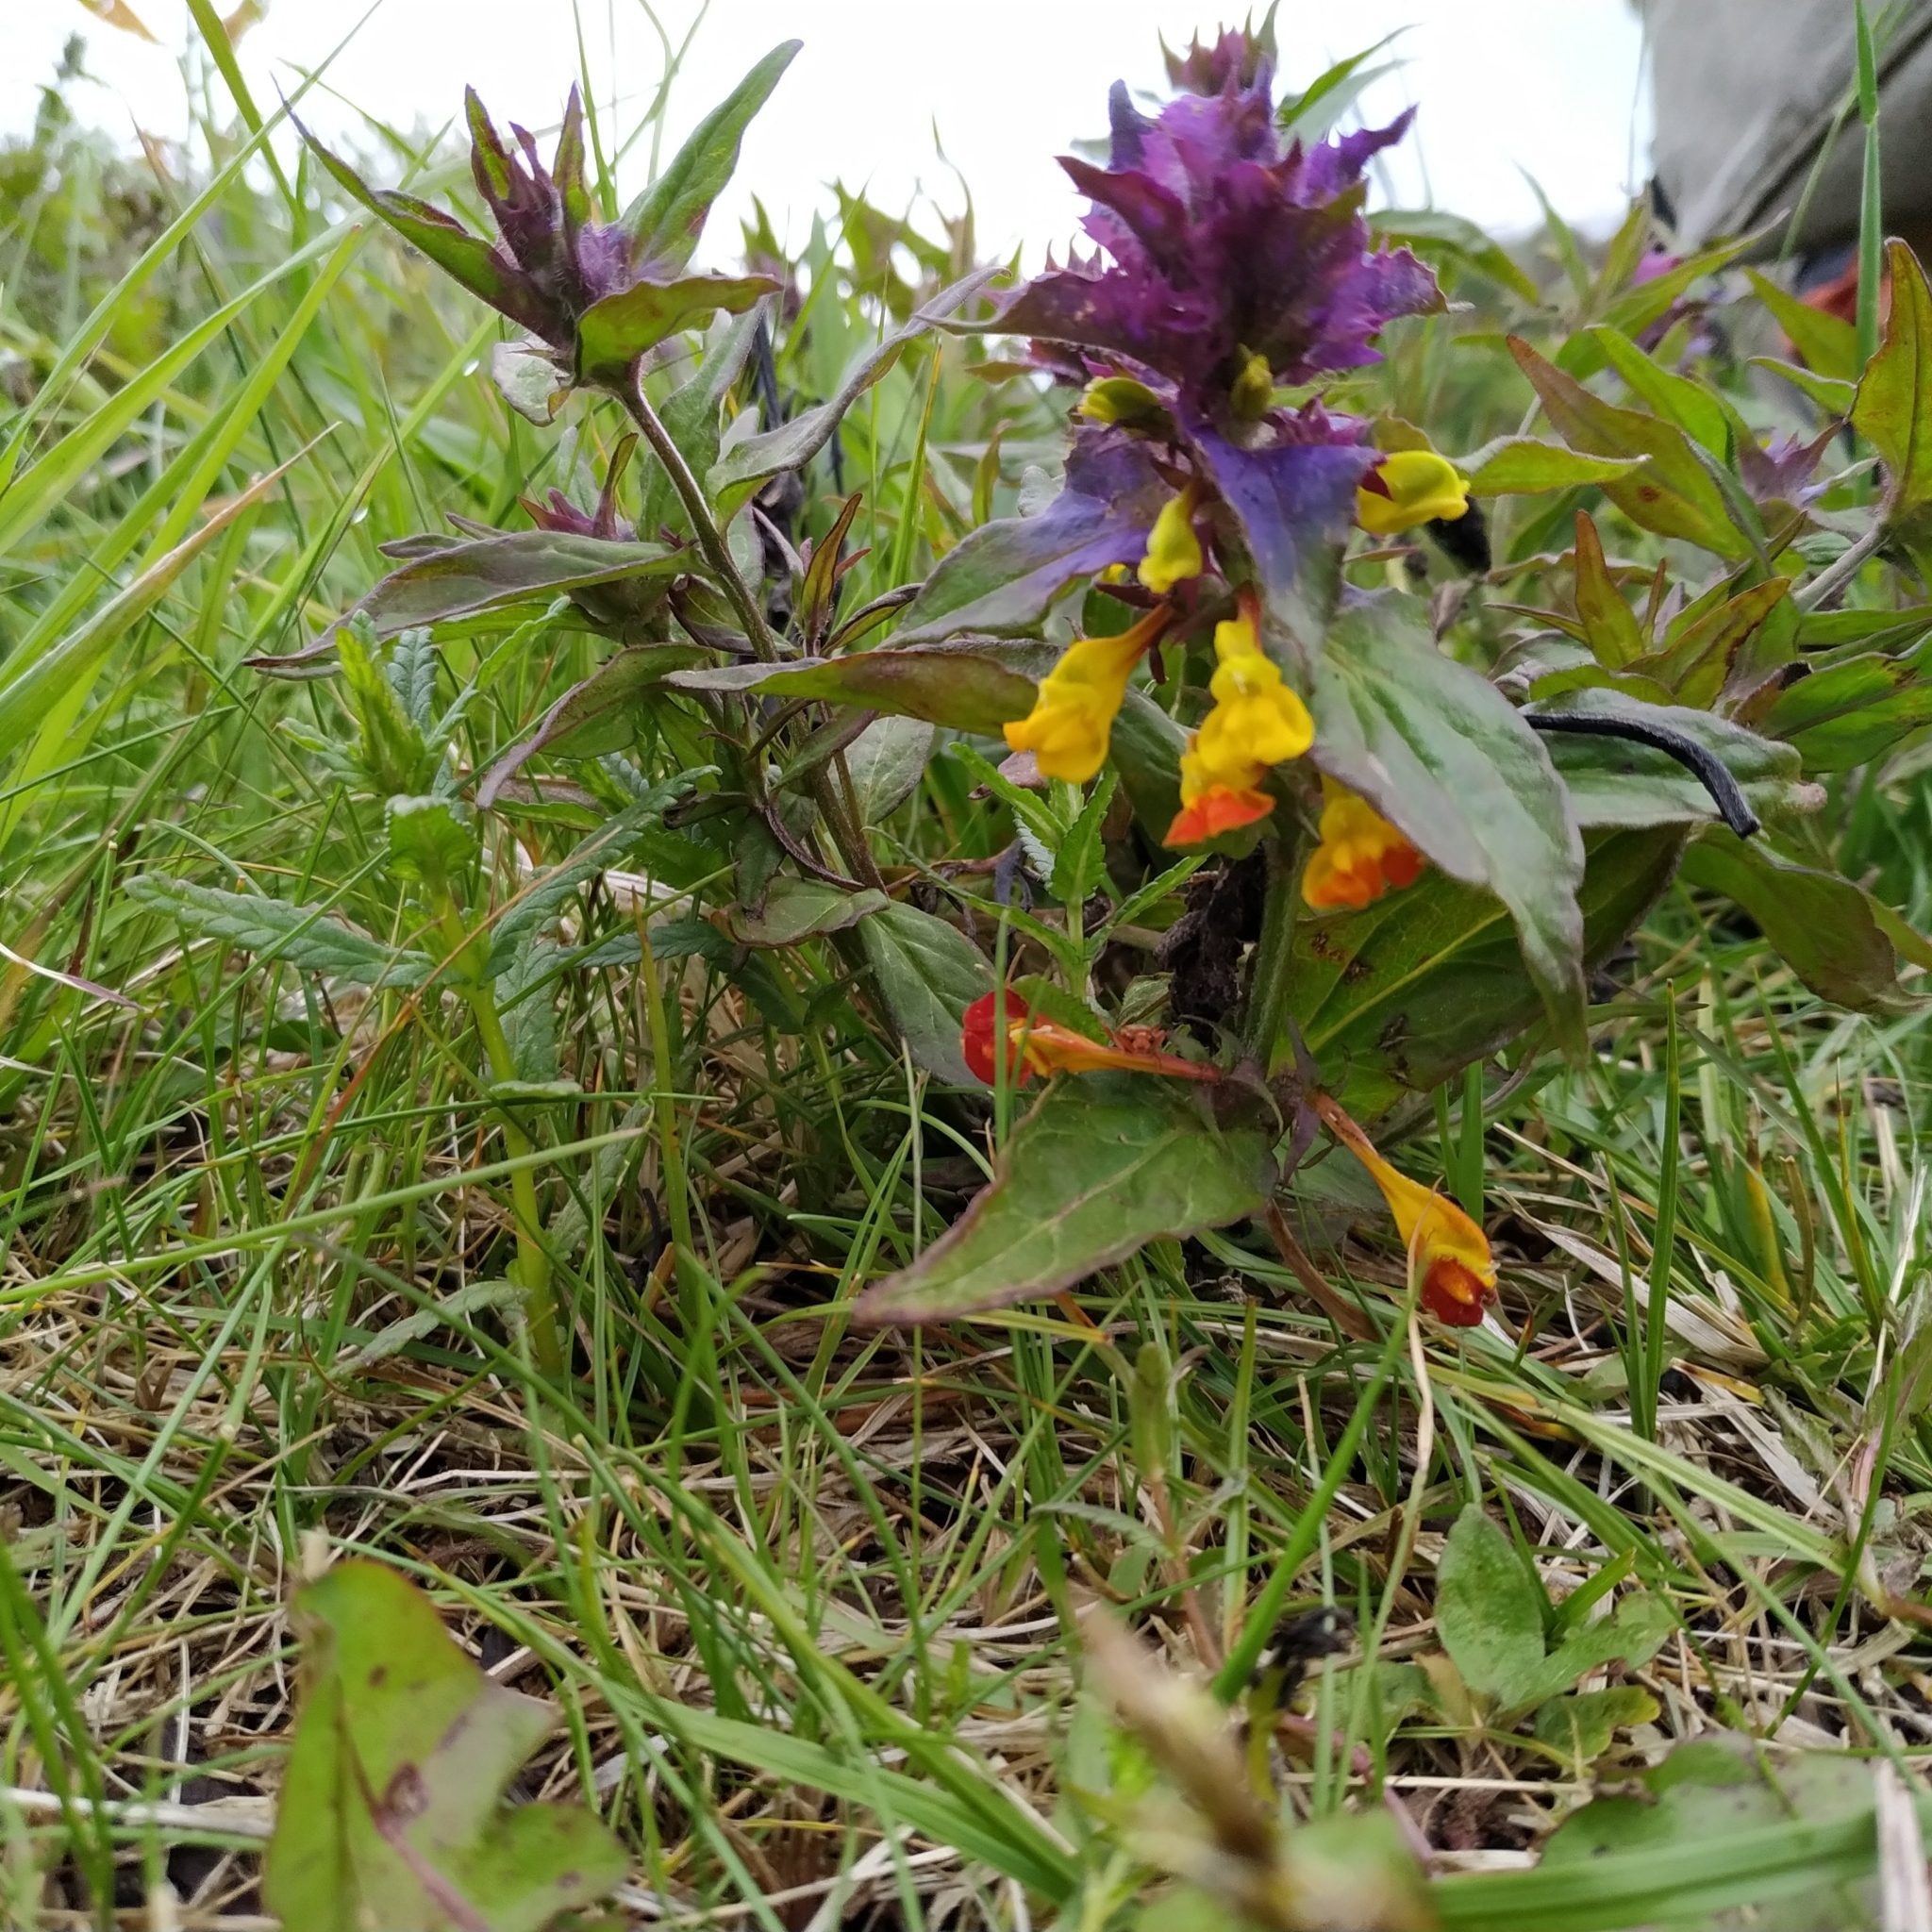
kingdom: Plantae
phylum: Tracheophyta
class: Magnoliopsida
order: Lamiales
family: Orobanchaceae
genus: Melampyrum
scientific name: Melampyrum nemorosum
